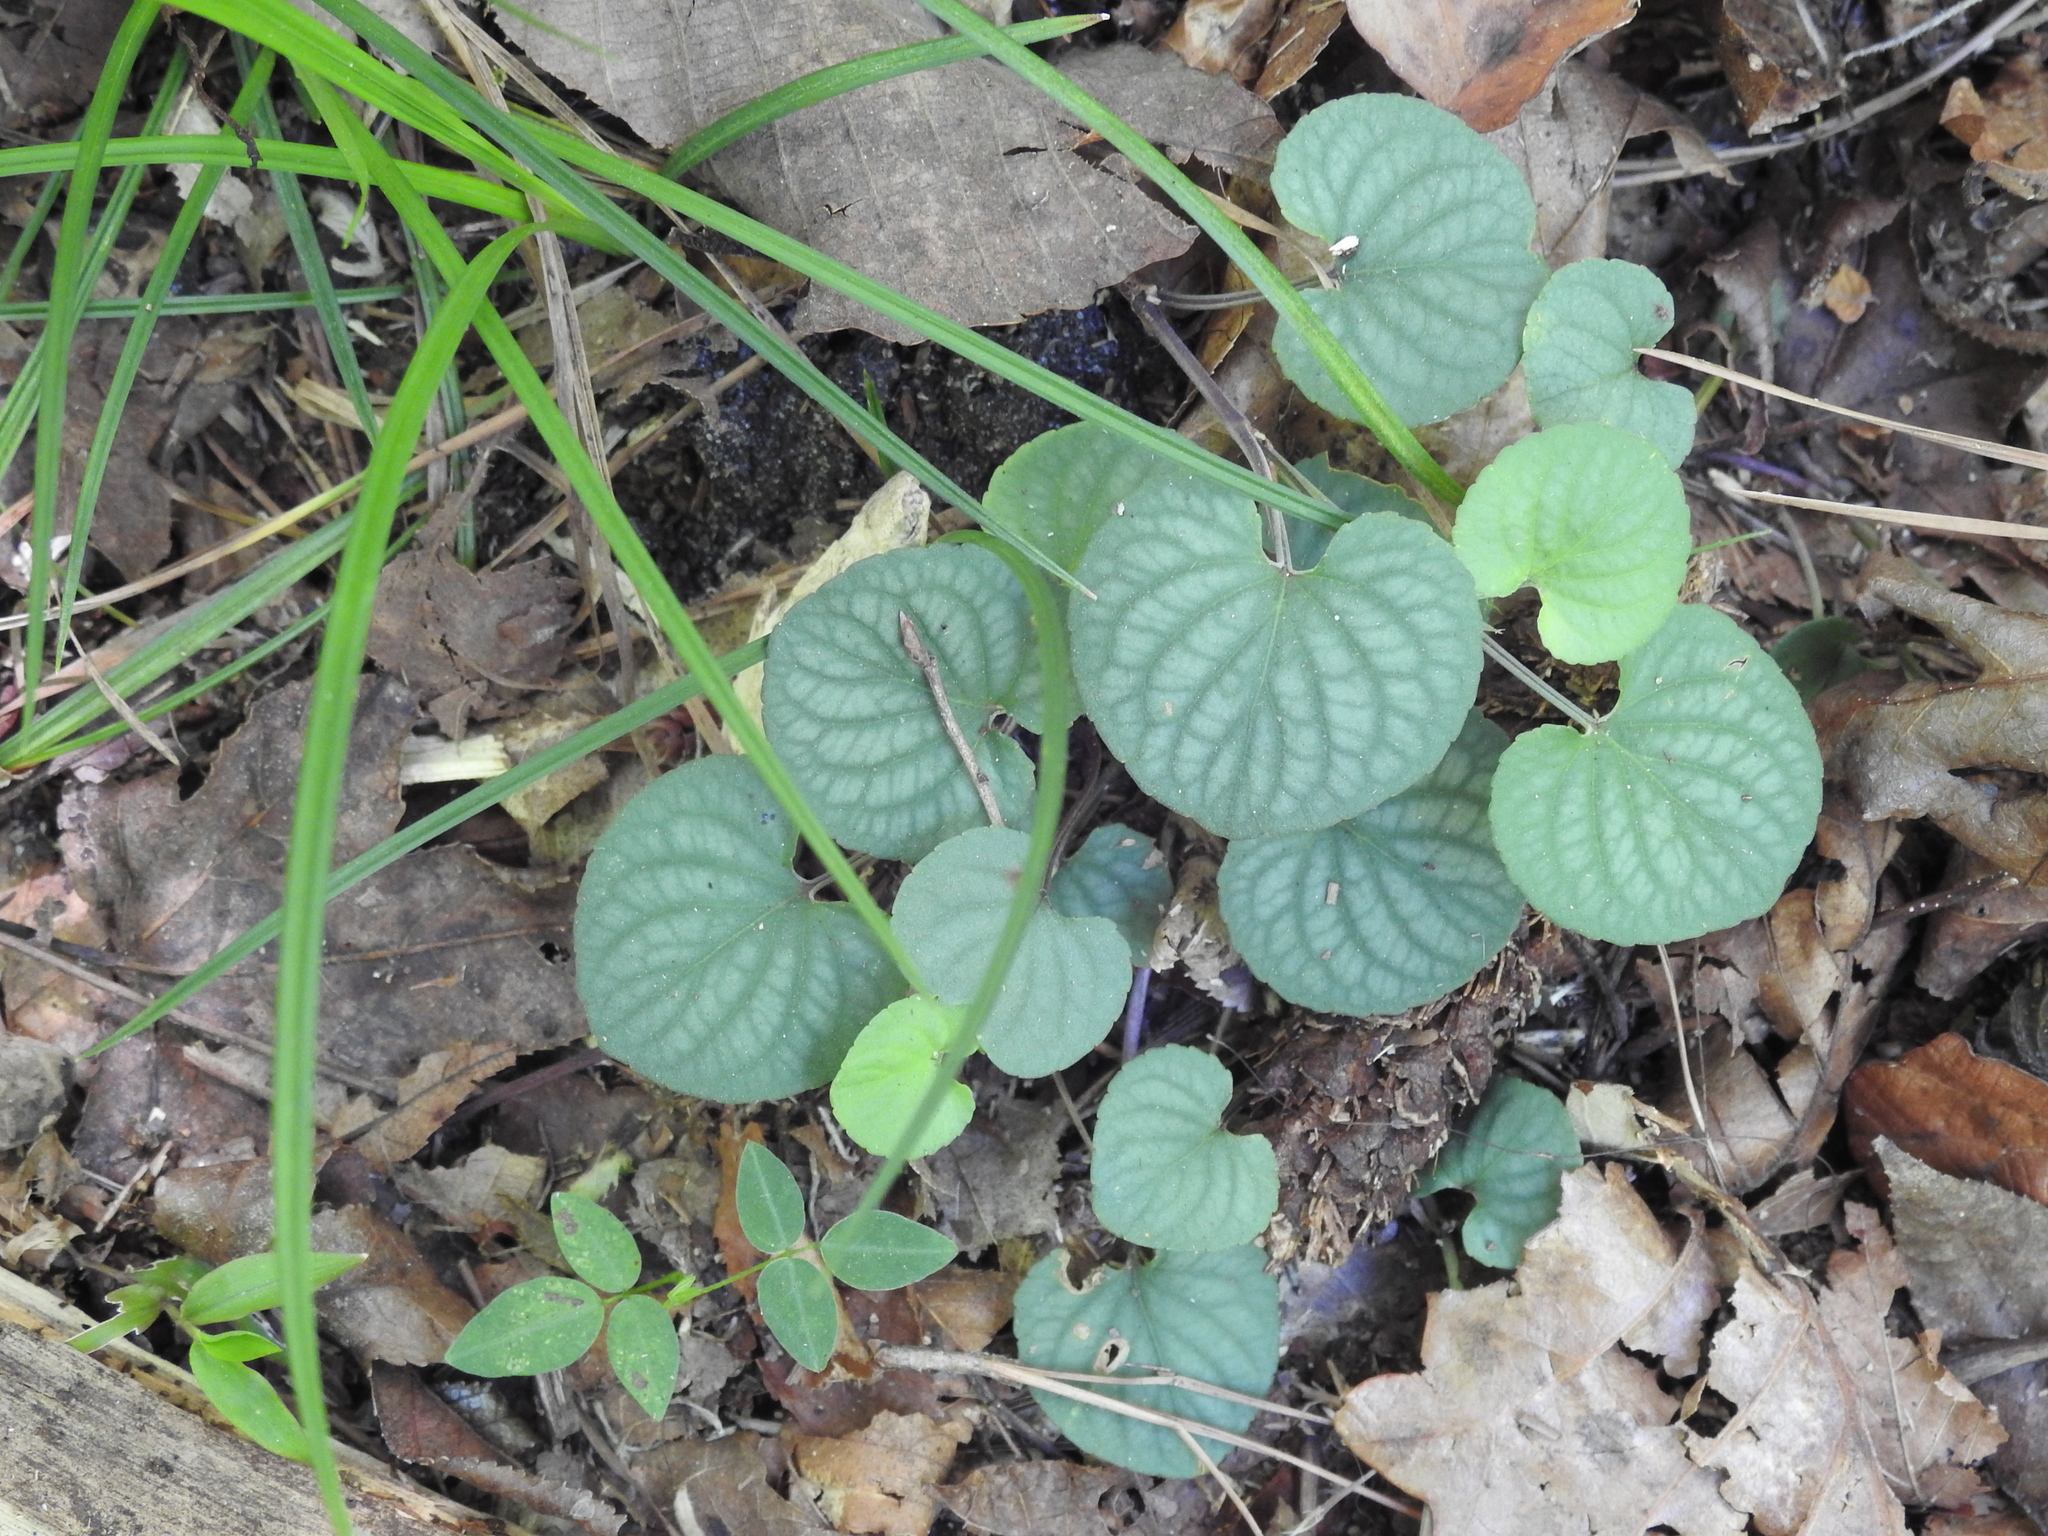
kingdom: Plantae
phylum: Tracheophyta
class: Magnoliopsida
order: Malpighiales
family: Violaceae
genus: Viola
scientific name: Viola walteri
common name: Prostrate southern violet
